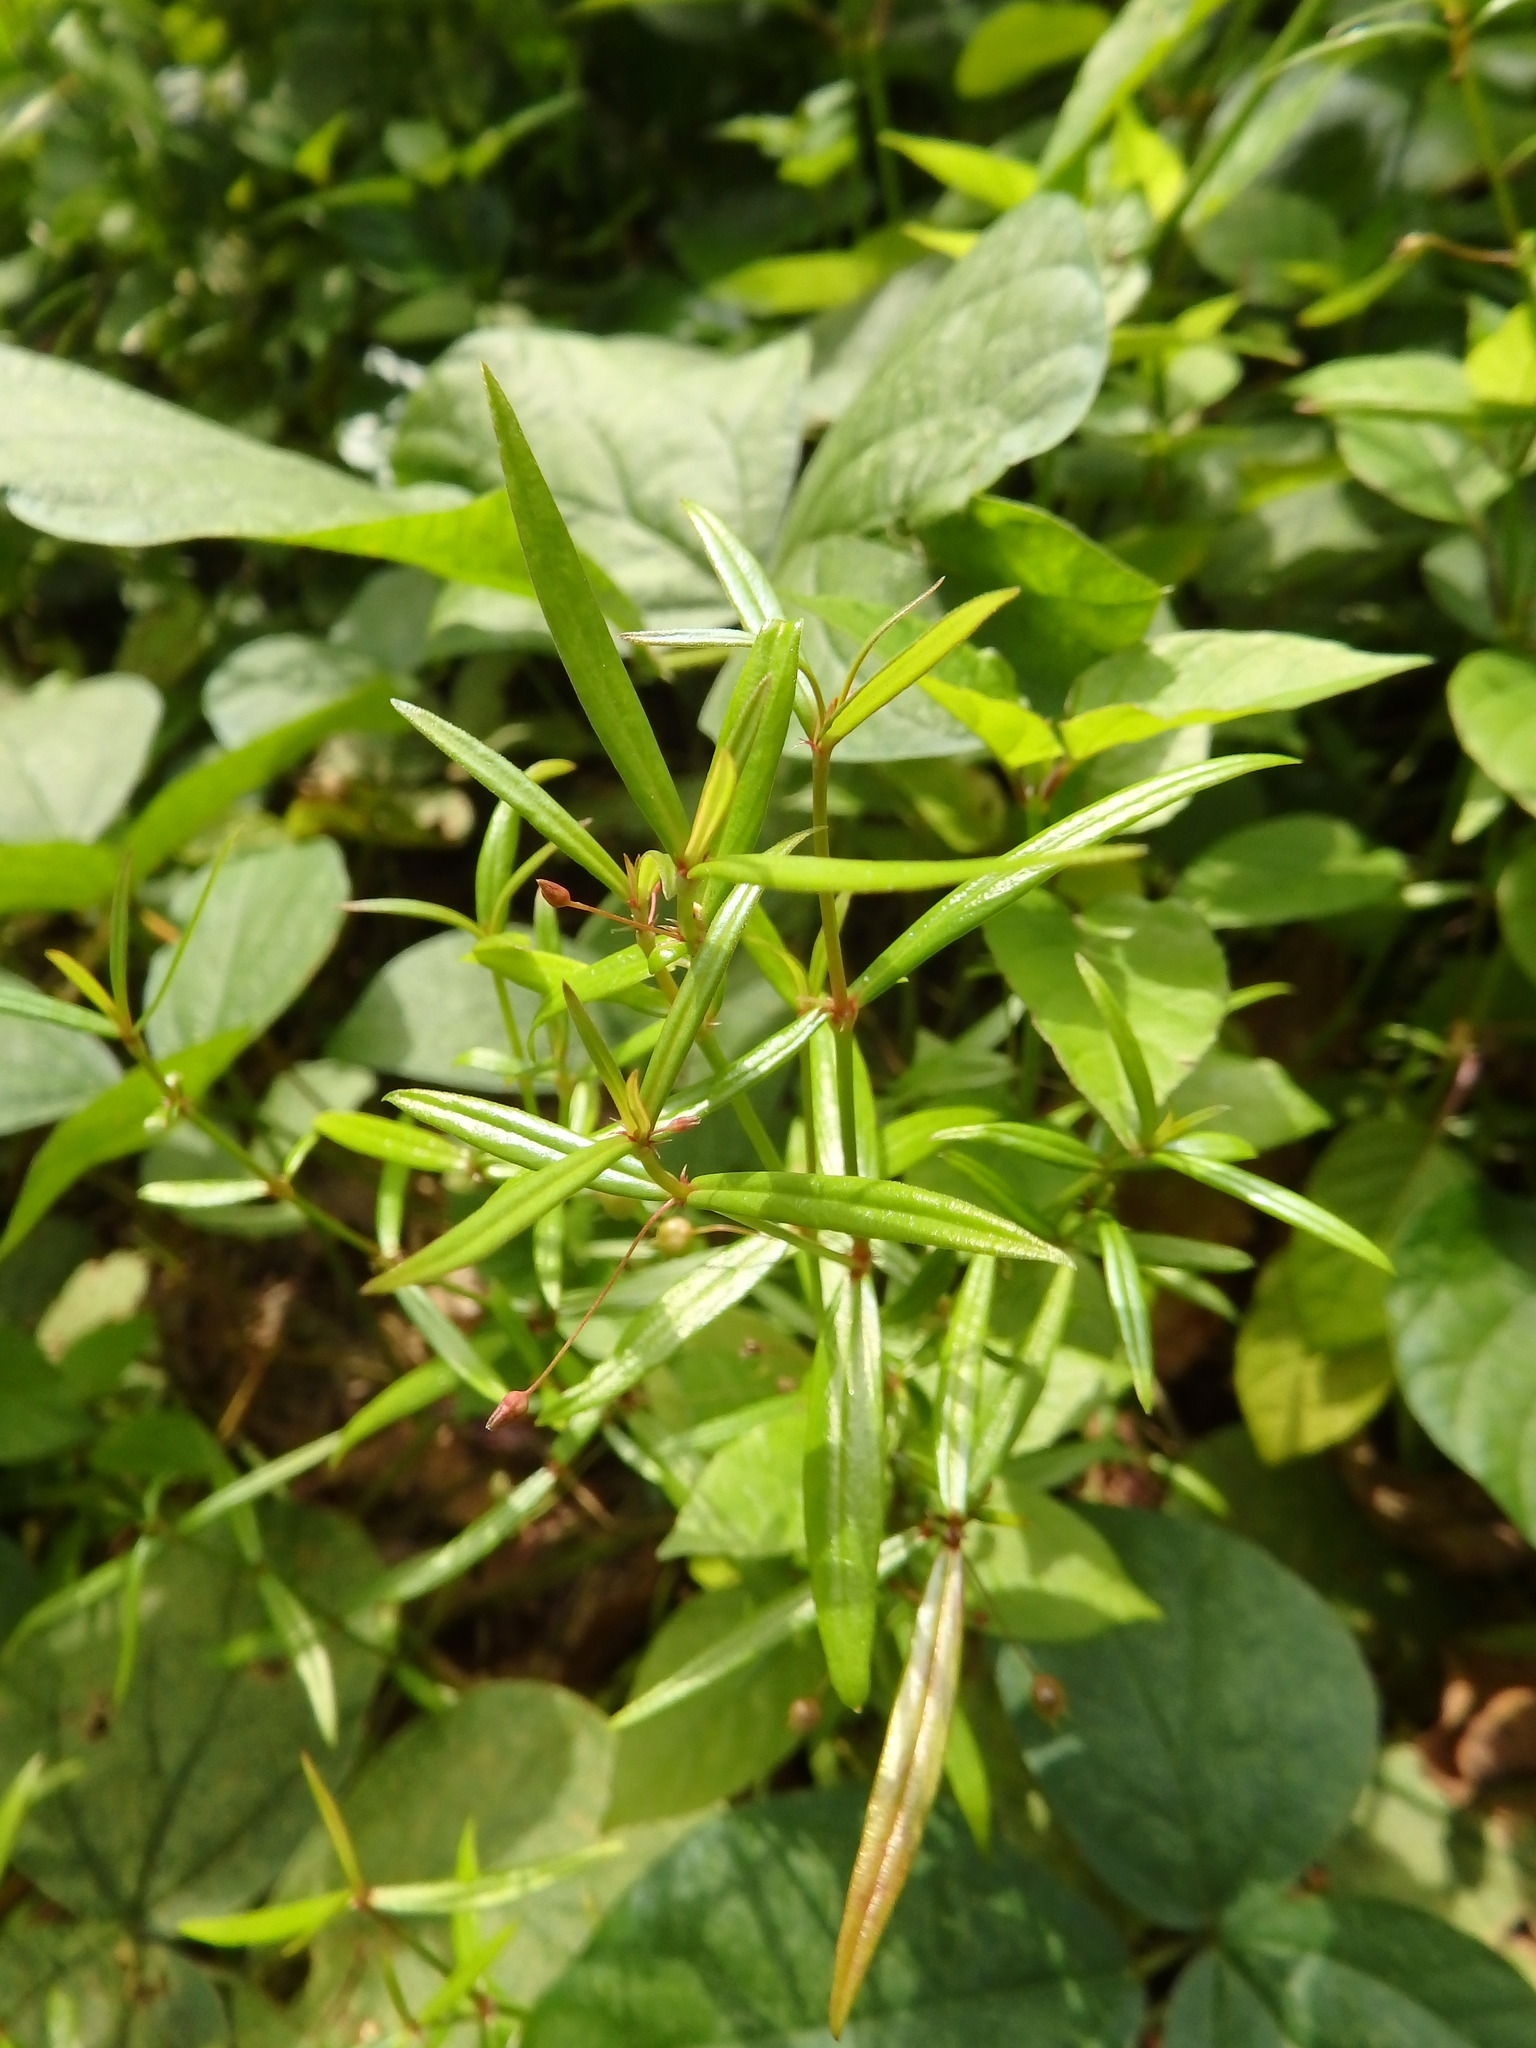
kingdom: Plantae
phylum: Tracheophyta
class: Magnoliopsida
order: Gentianales
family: Rubiaceae
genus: Scleromitrion
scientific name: Scleromitrion diffusum
